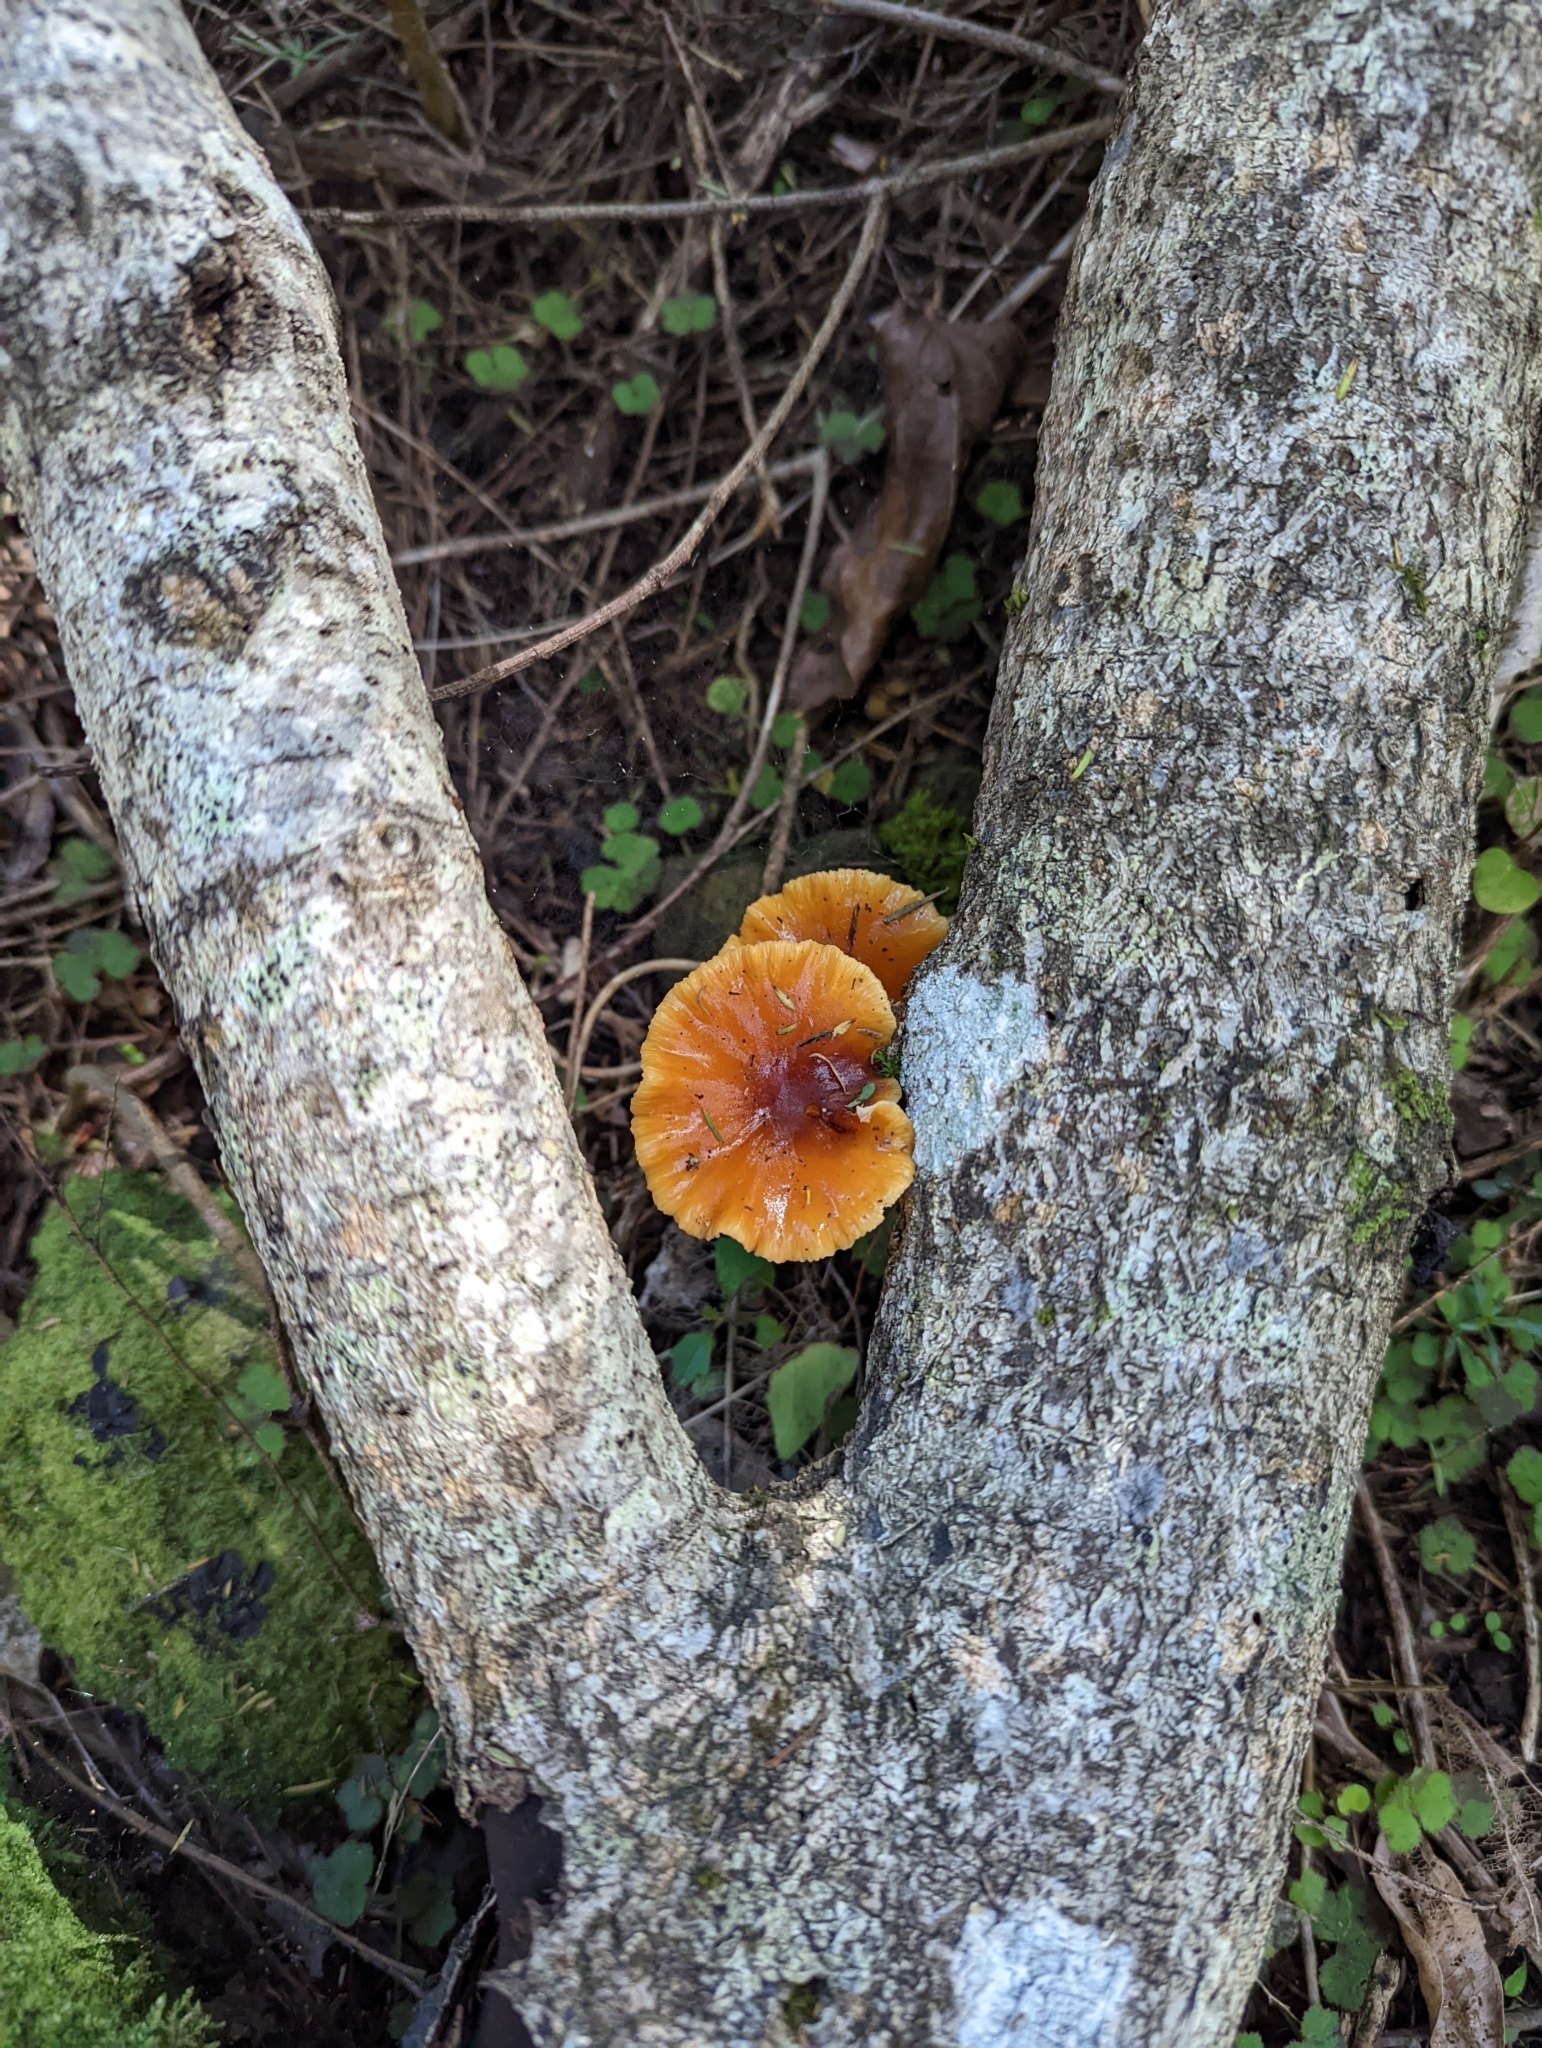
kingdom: Fungi
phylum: Basidiomycota
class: Agaricomycetes
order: Agaricales
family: Physalacriaceae
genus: Flammulina
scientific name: Flammulina velutipes
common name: Velvet shank
